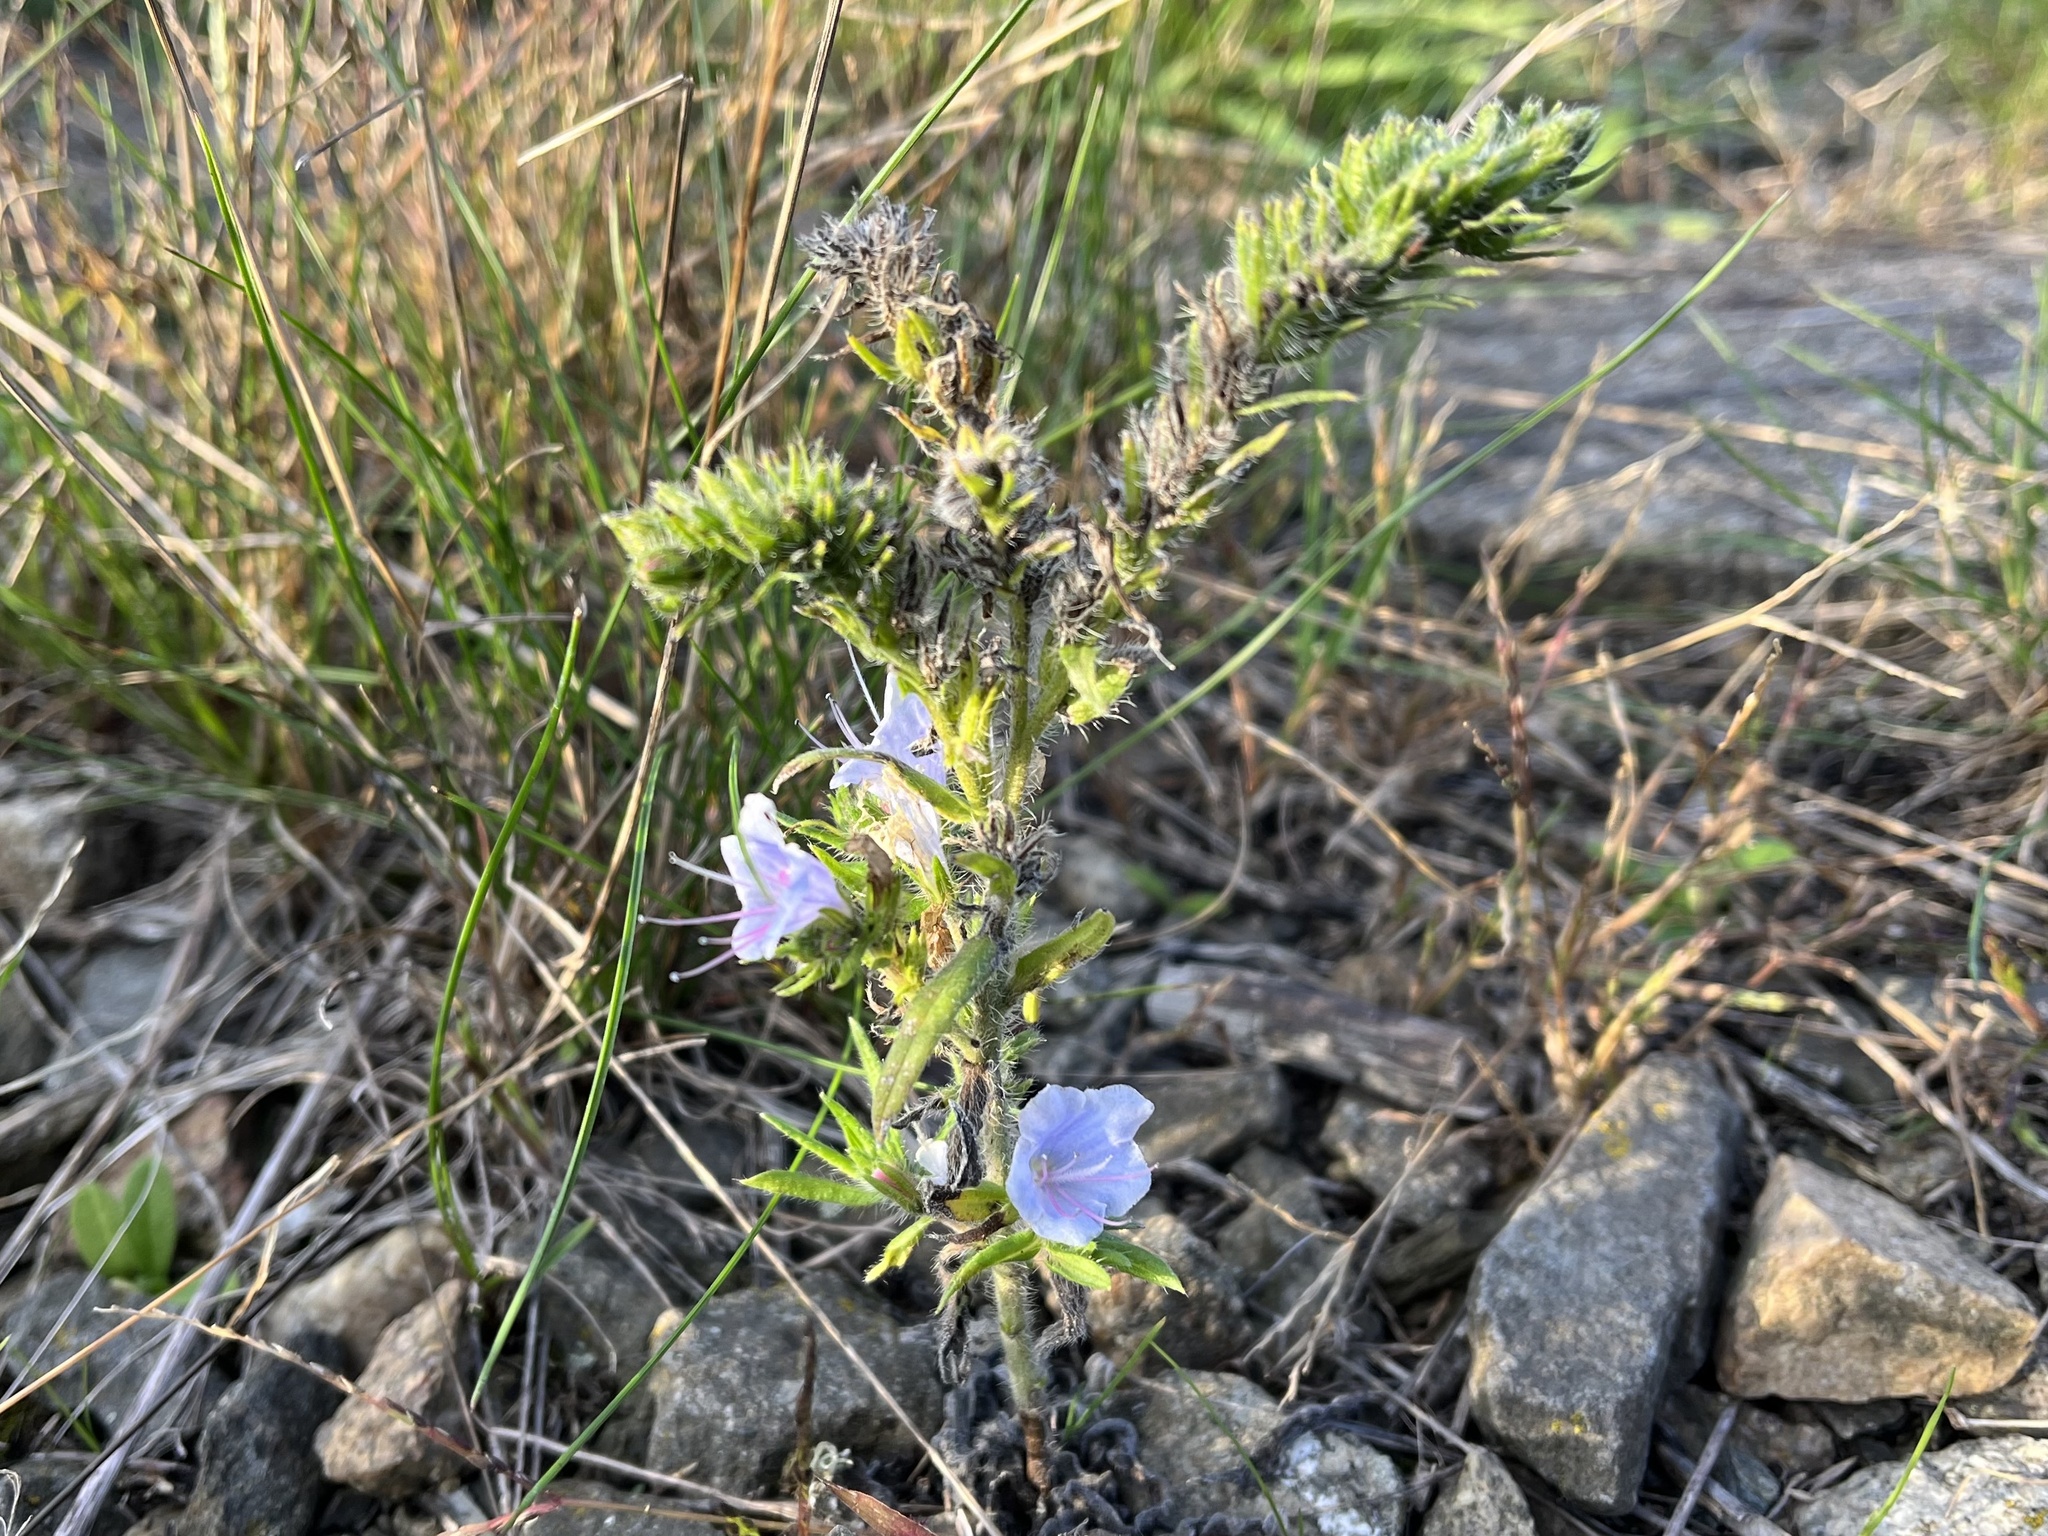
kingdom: Plantae
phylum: Tracheophyta
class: Magnoliopsida
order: Boraginales
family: Boraginaceae
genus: Echium
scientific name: Echium vulgare
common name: Common viper's bugloss
